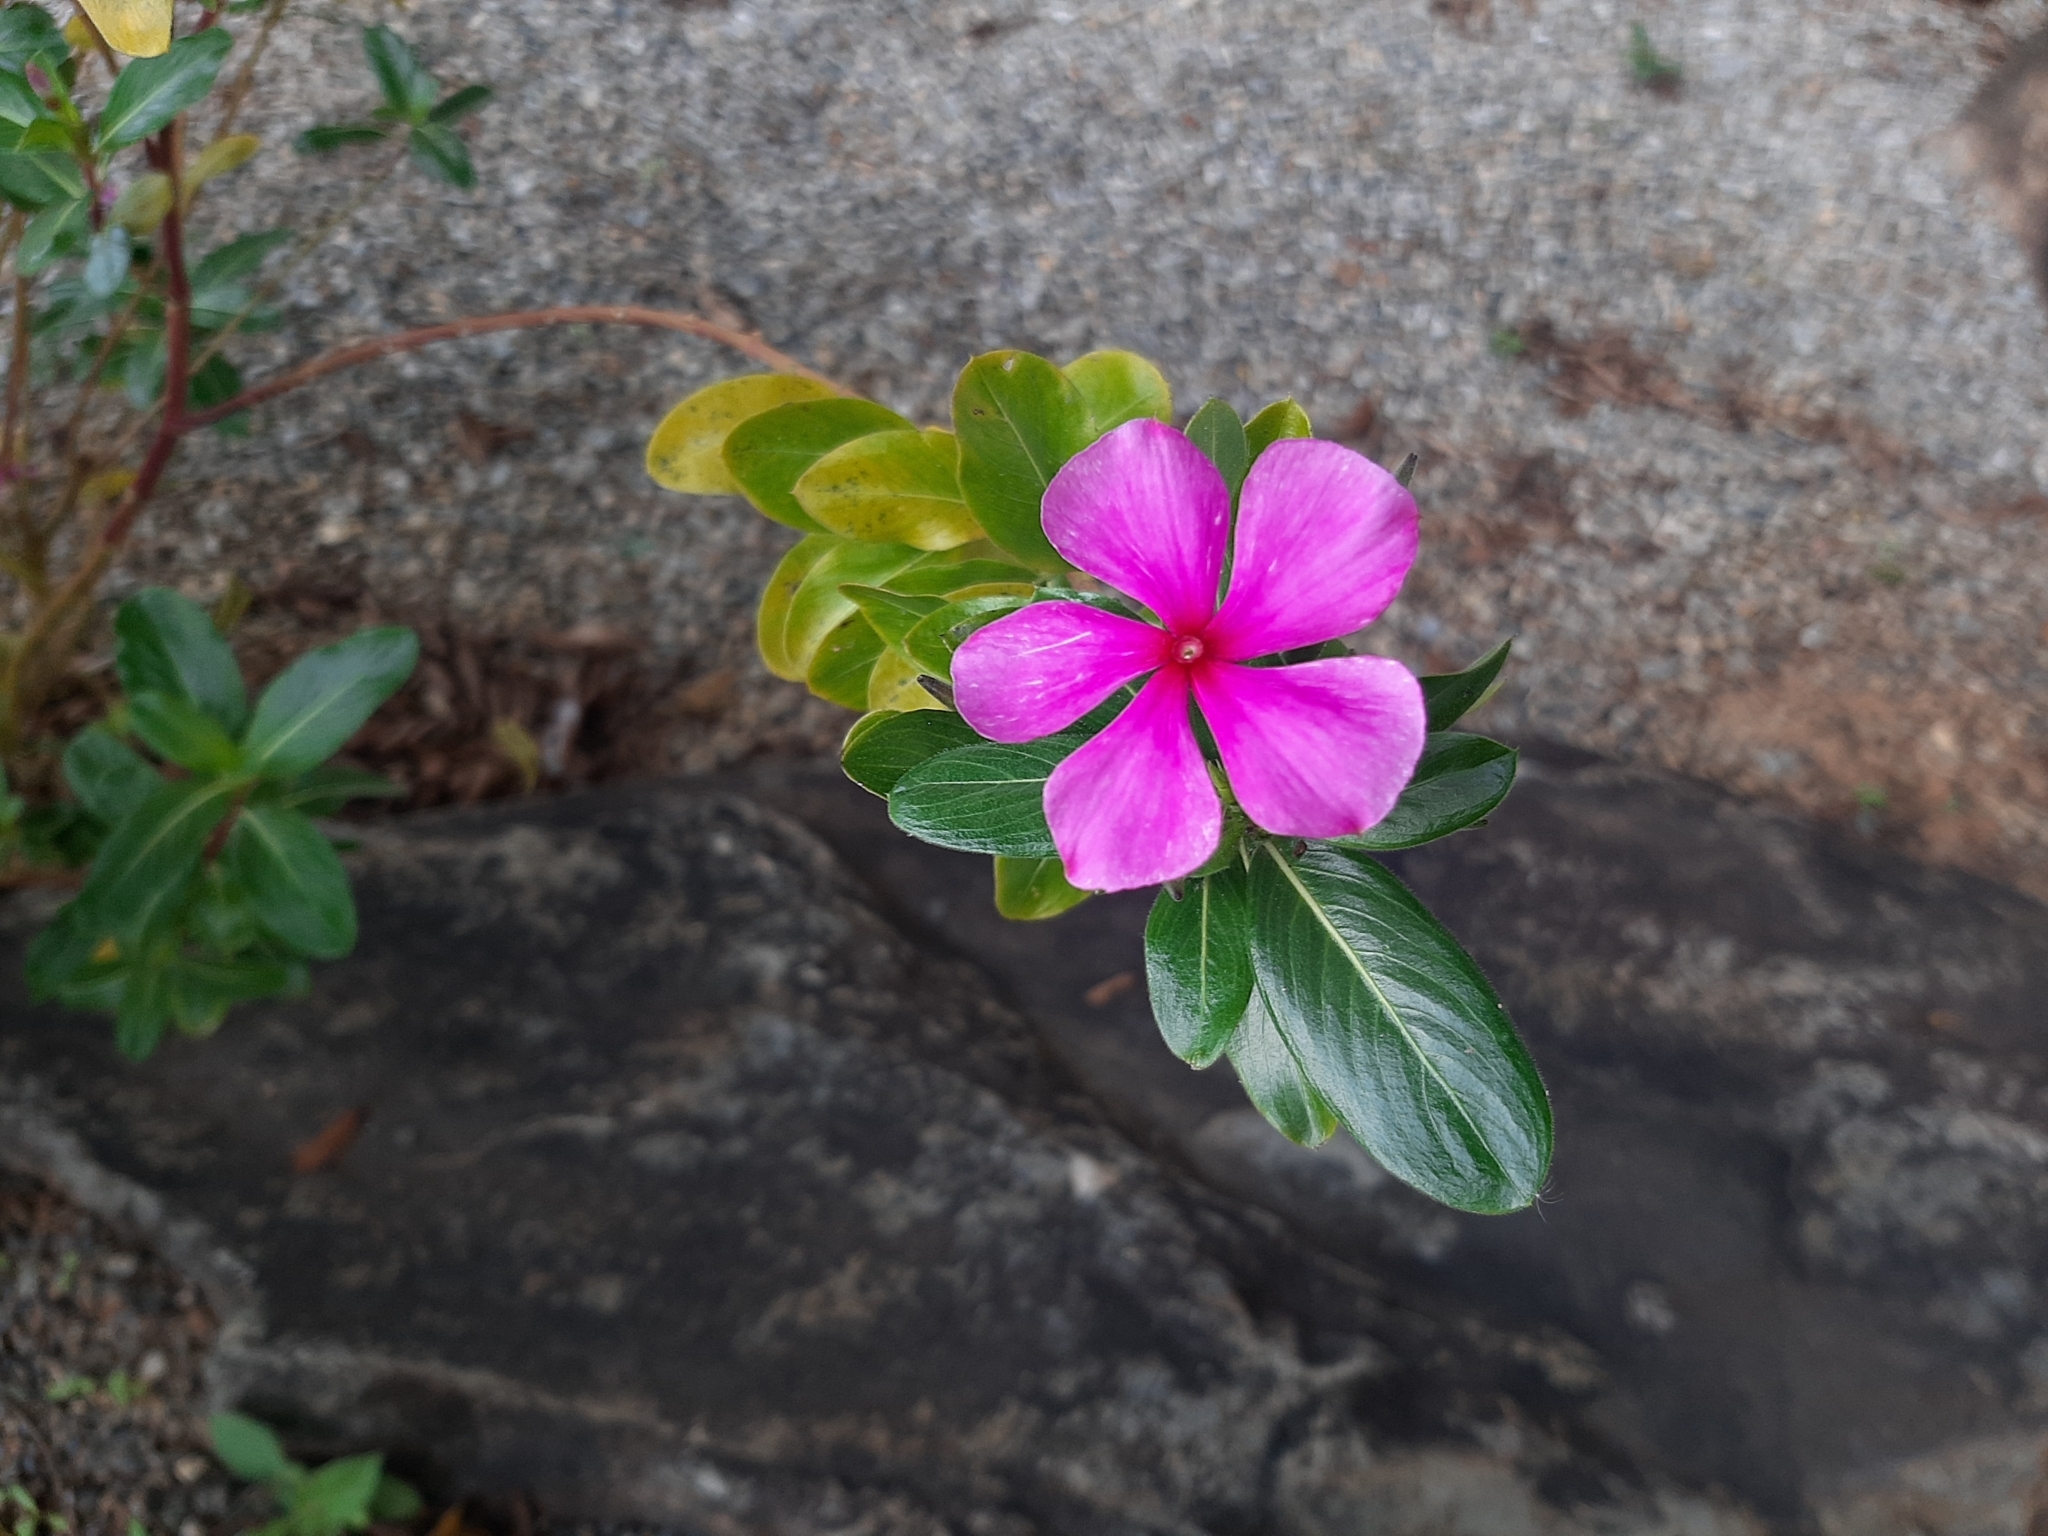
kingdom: Plantae
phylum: Tracheophyta
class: Magnoliopsida
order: Gentianales
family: Apocynaceae
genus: Catharanthus
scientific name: Catharanthus roseus
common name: Madagascar periwinkle
